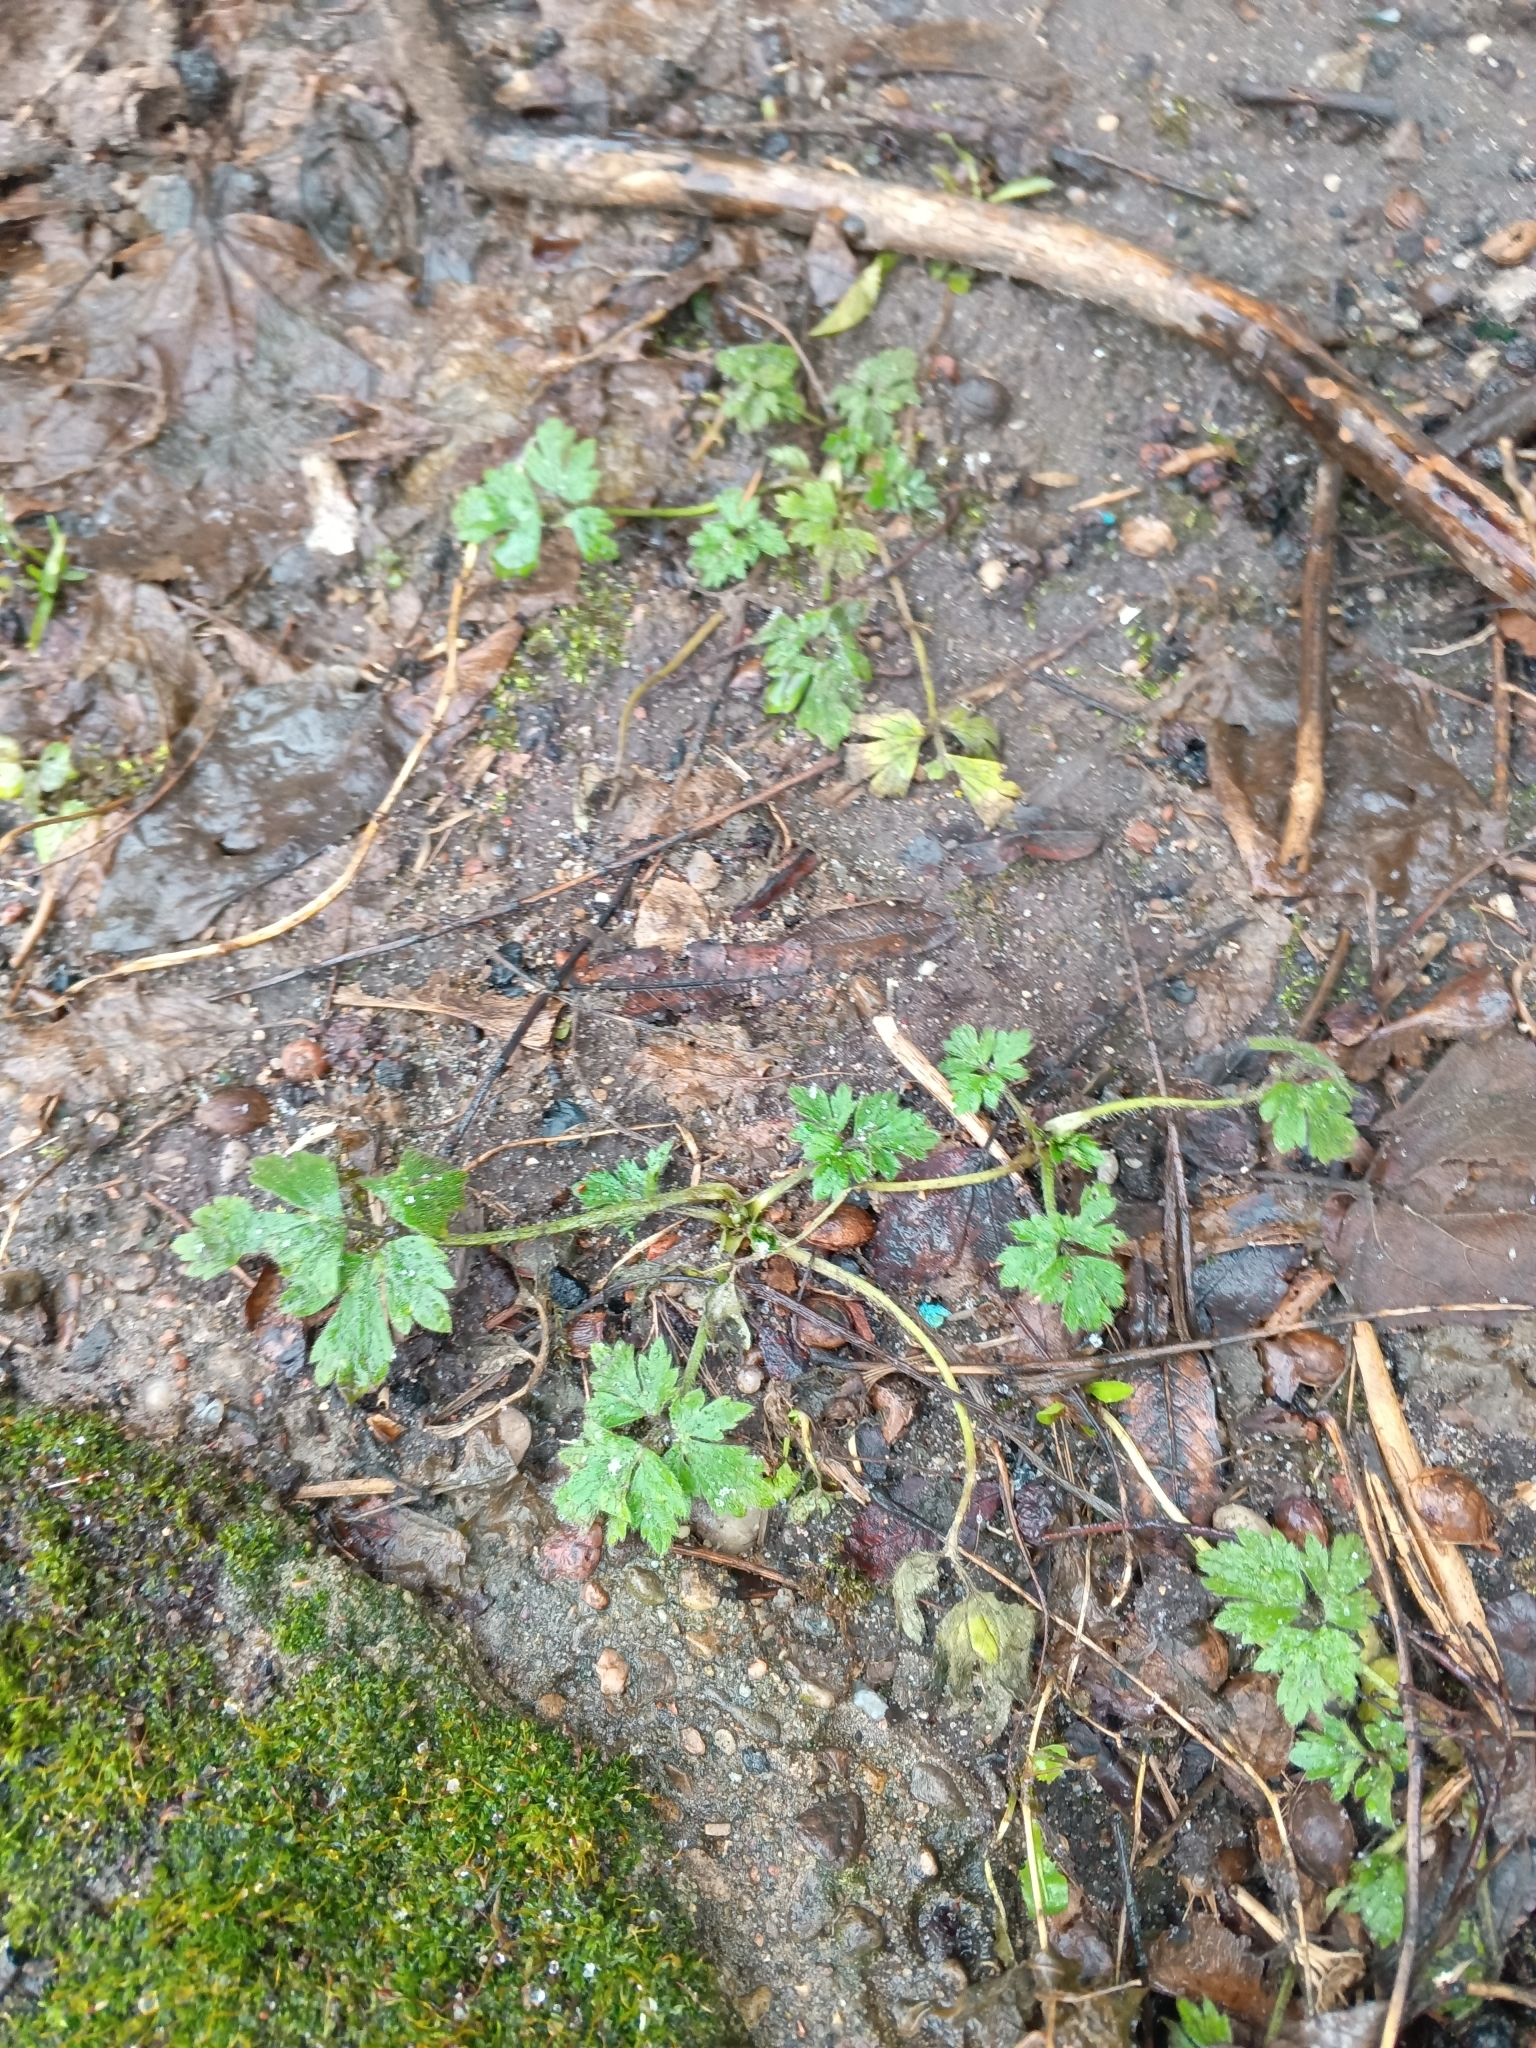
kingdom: Plantae
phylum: Tracheophyta
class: Magnoliopsida
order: Ranunculales
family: Ranunculaceae
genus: Ranunculus
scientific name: Ranunculus repens
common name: Creeping buttercup
